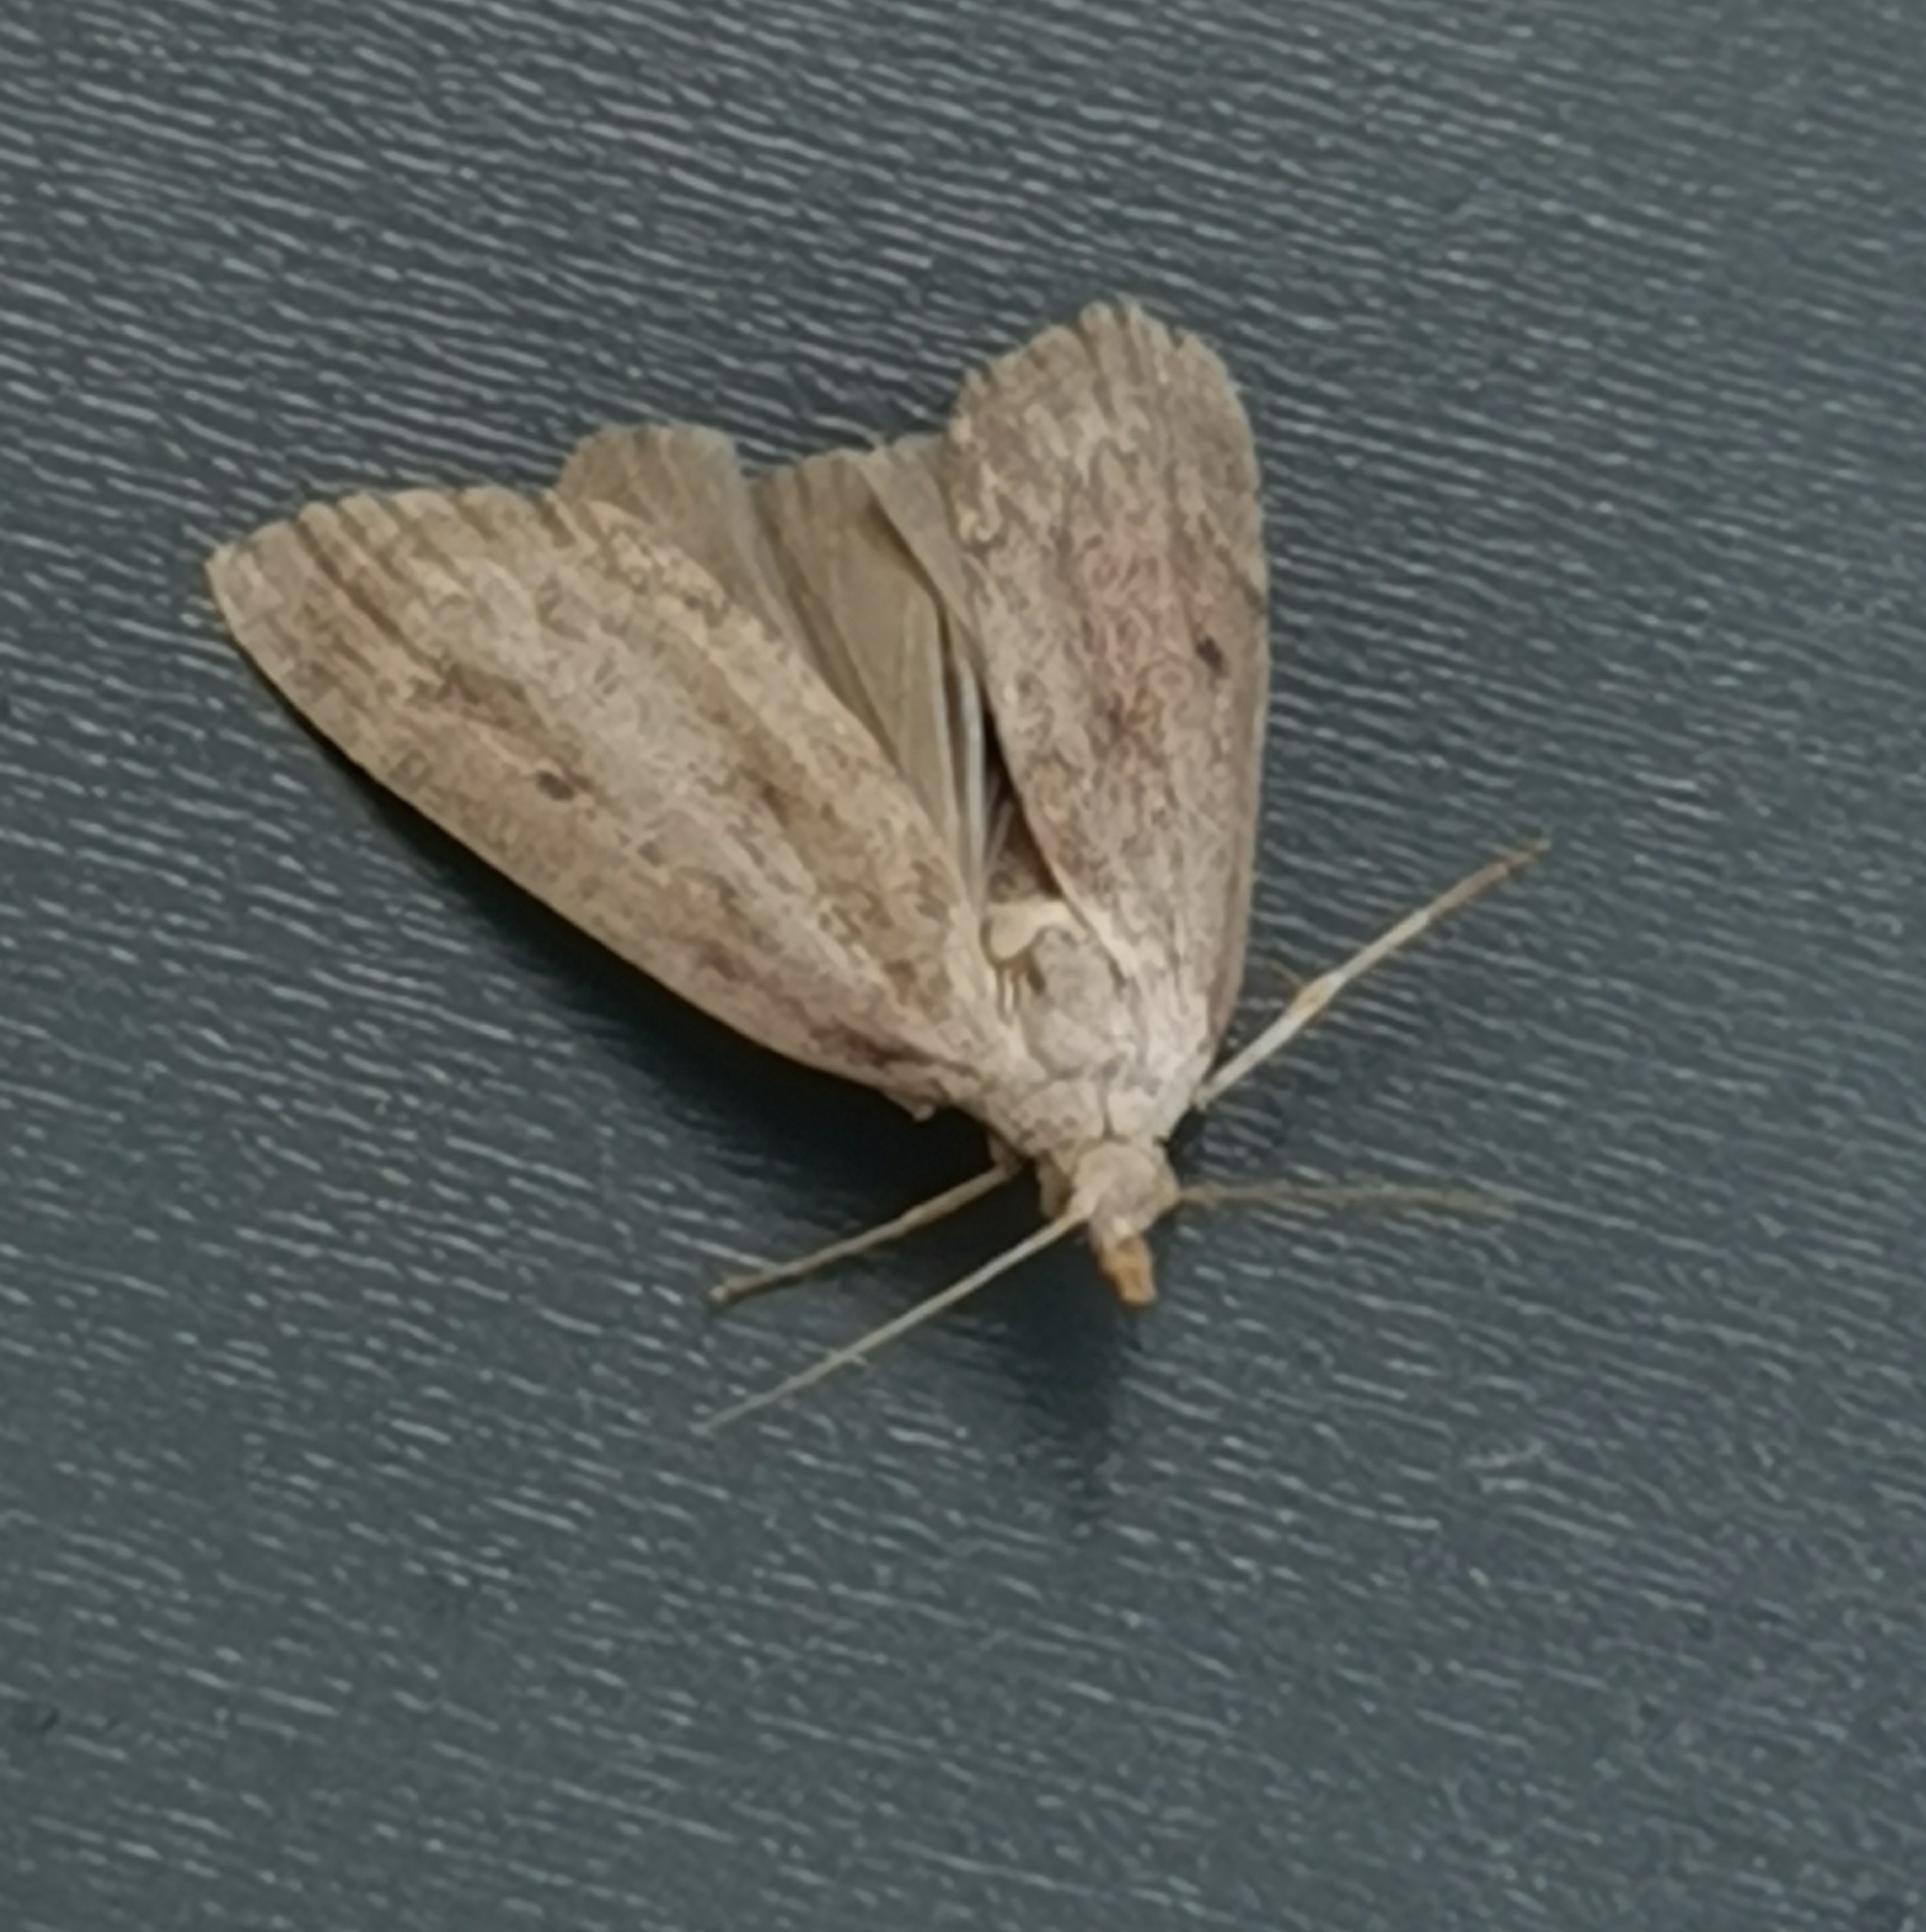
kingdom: Animalia
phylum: Arthropoda
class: Insecta
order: Lepidoptera
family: Pyralidae
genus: Aphomia
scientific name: Aphomia sociella
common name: Bee moth
